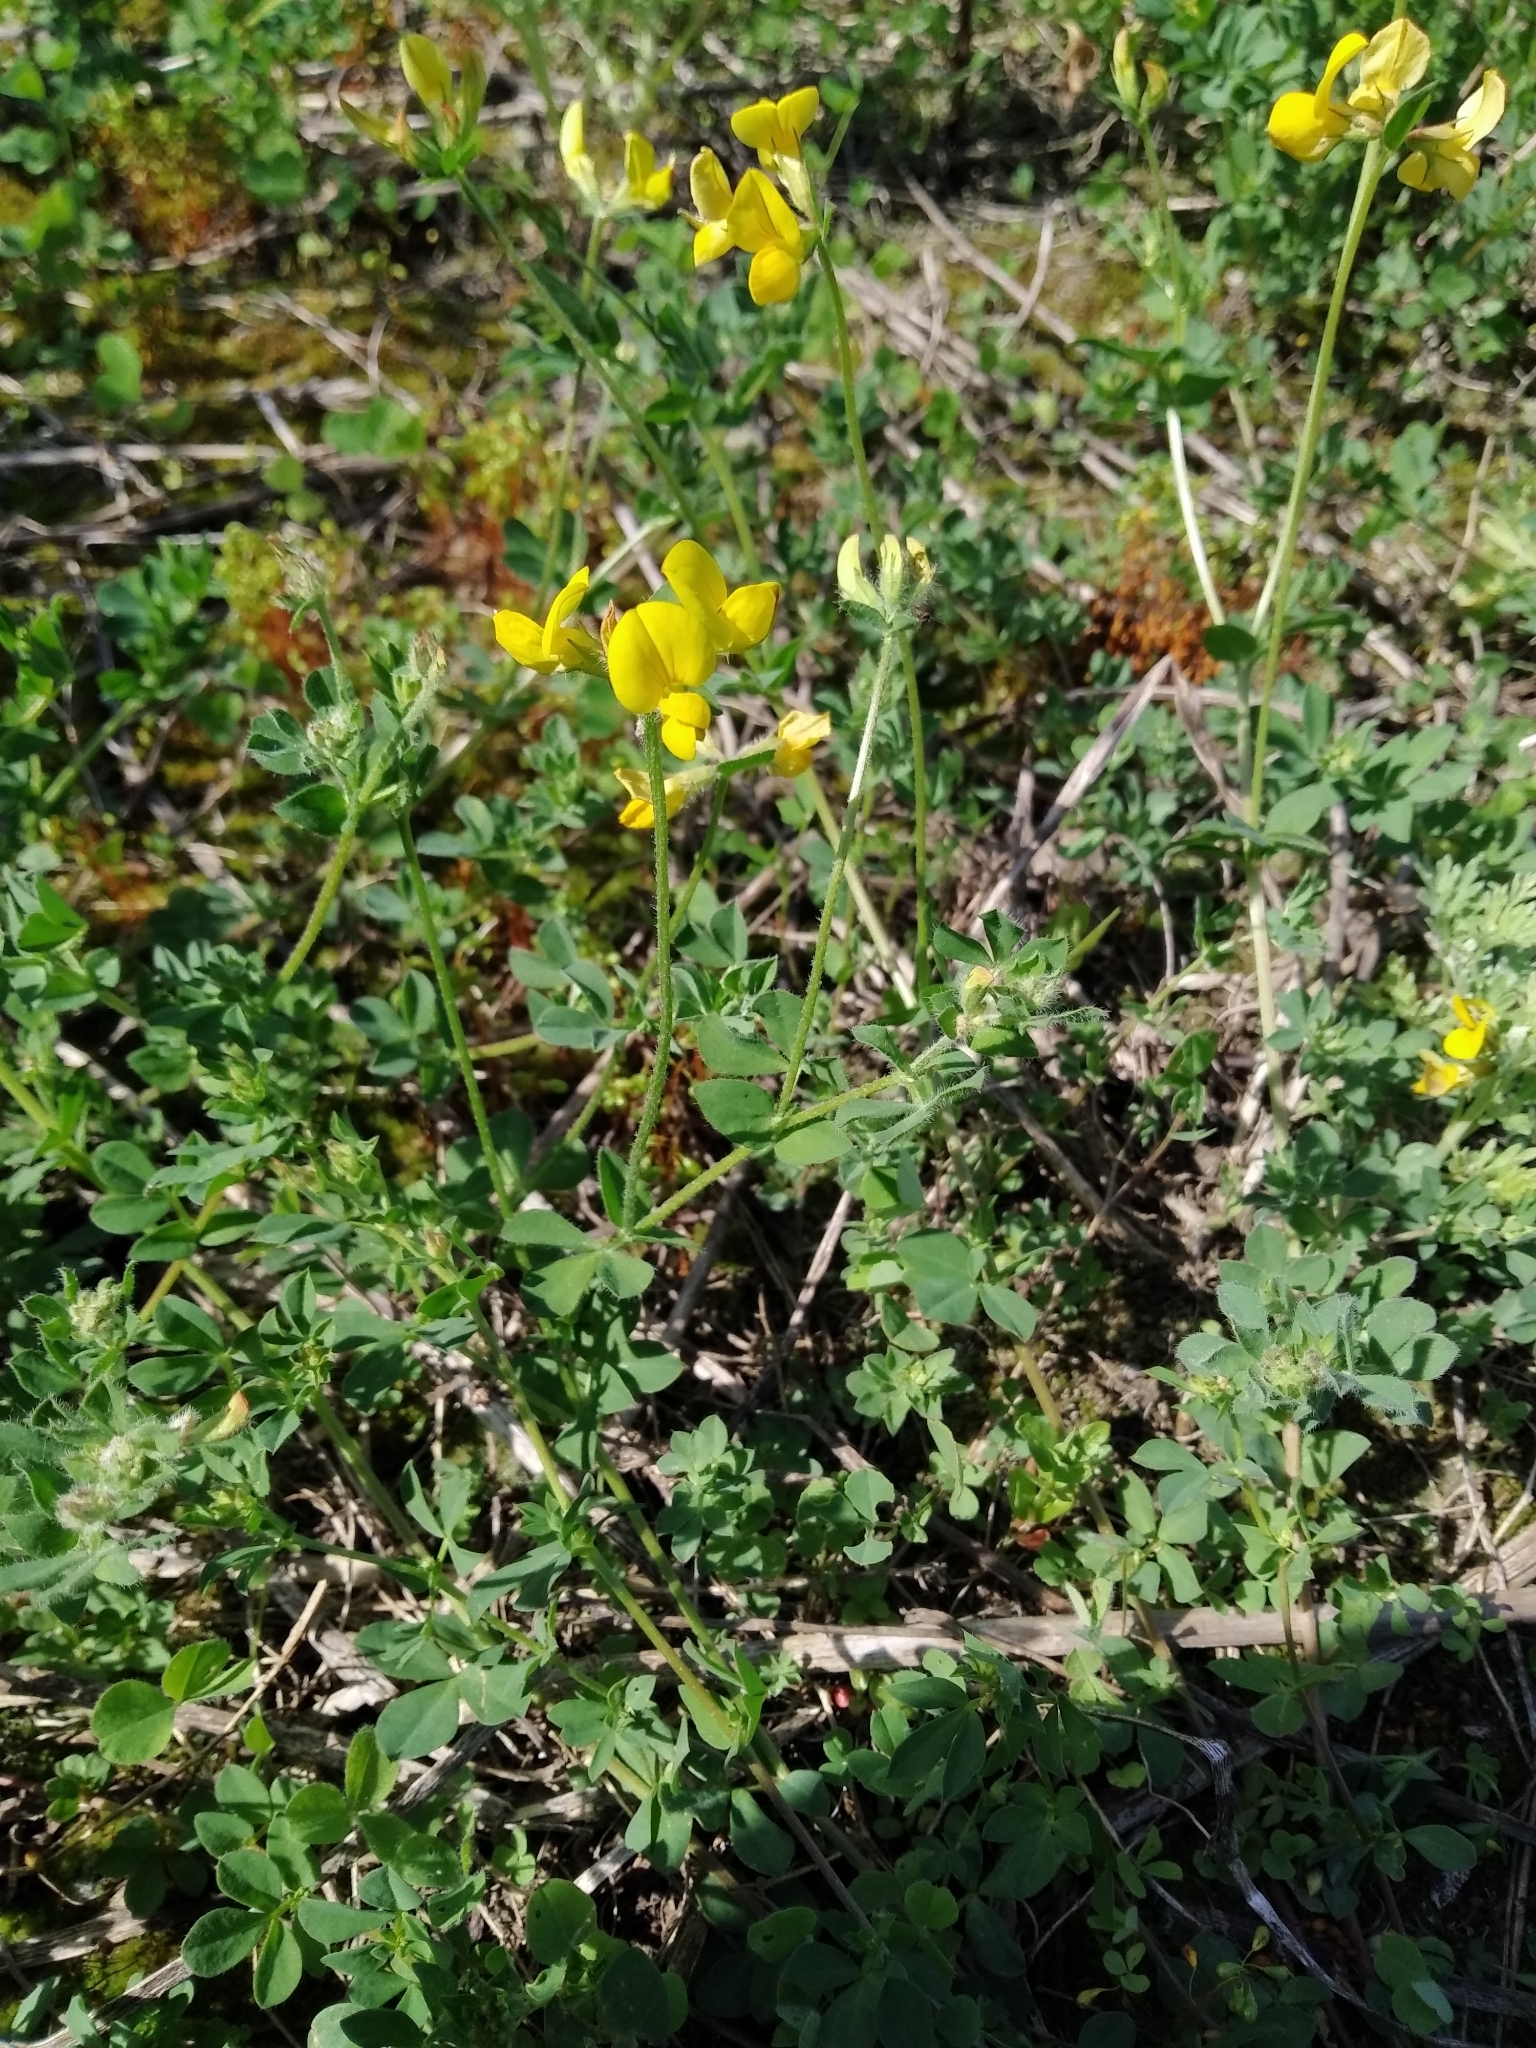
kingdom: Plantae
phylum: Tracheophyta
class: Magnoliopsida
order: Fabales
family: Fabaceae
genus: Lotus
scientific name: Lotus corniculatus
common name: Common bird's-foot-trefoil
